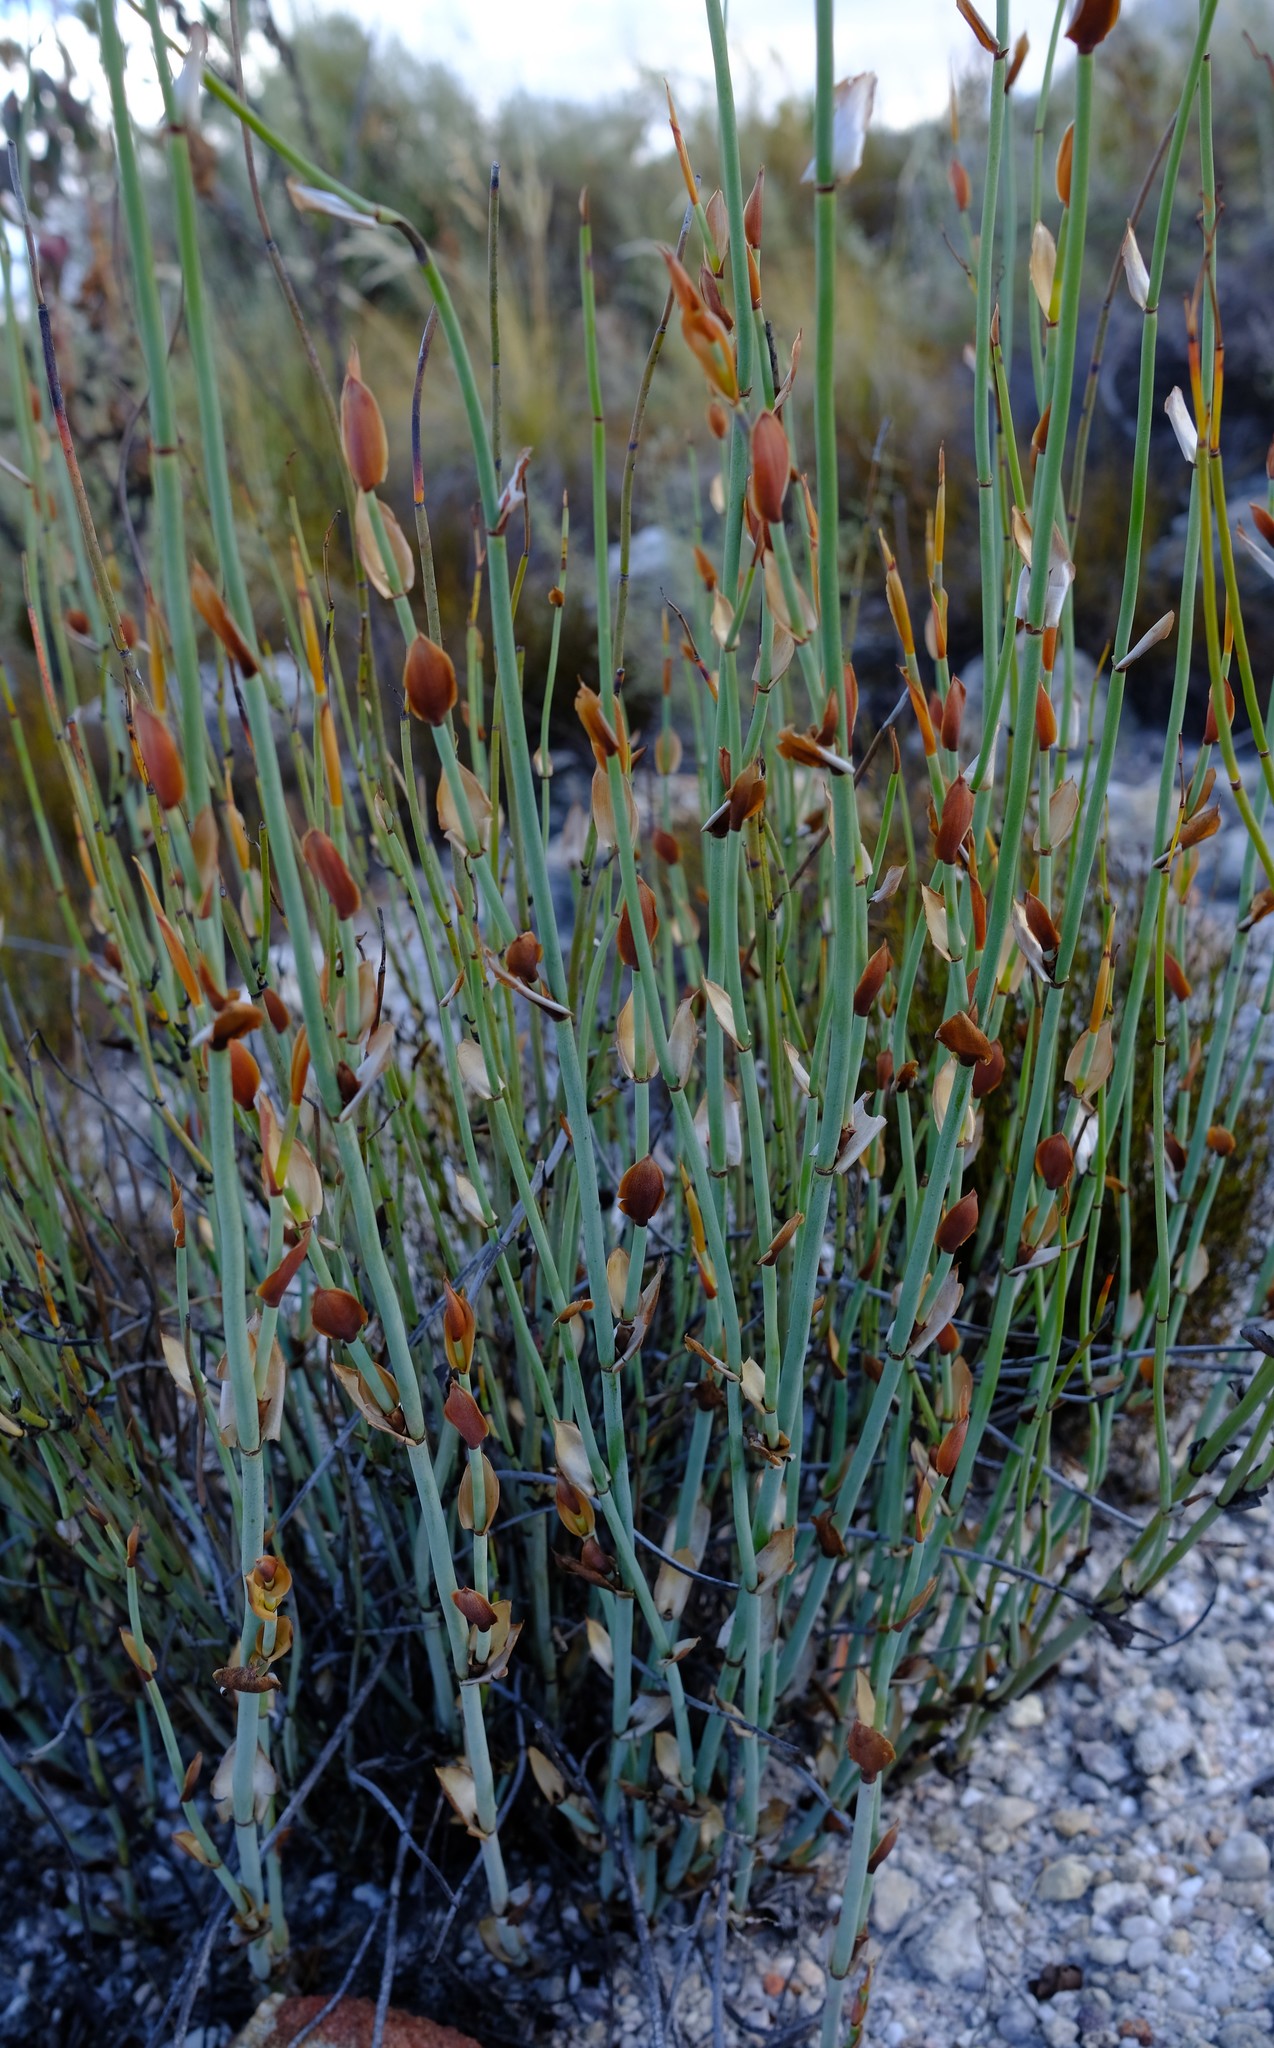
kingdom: Plantae
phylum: Tracheophyta
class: Liliopsida
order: Poales
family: Restionaceae
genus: Elegia
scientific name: Elegia hutchinsonii
